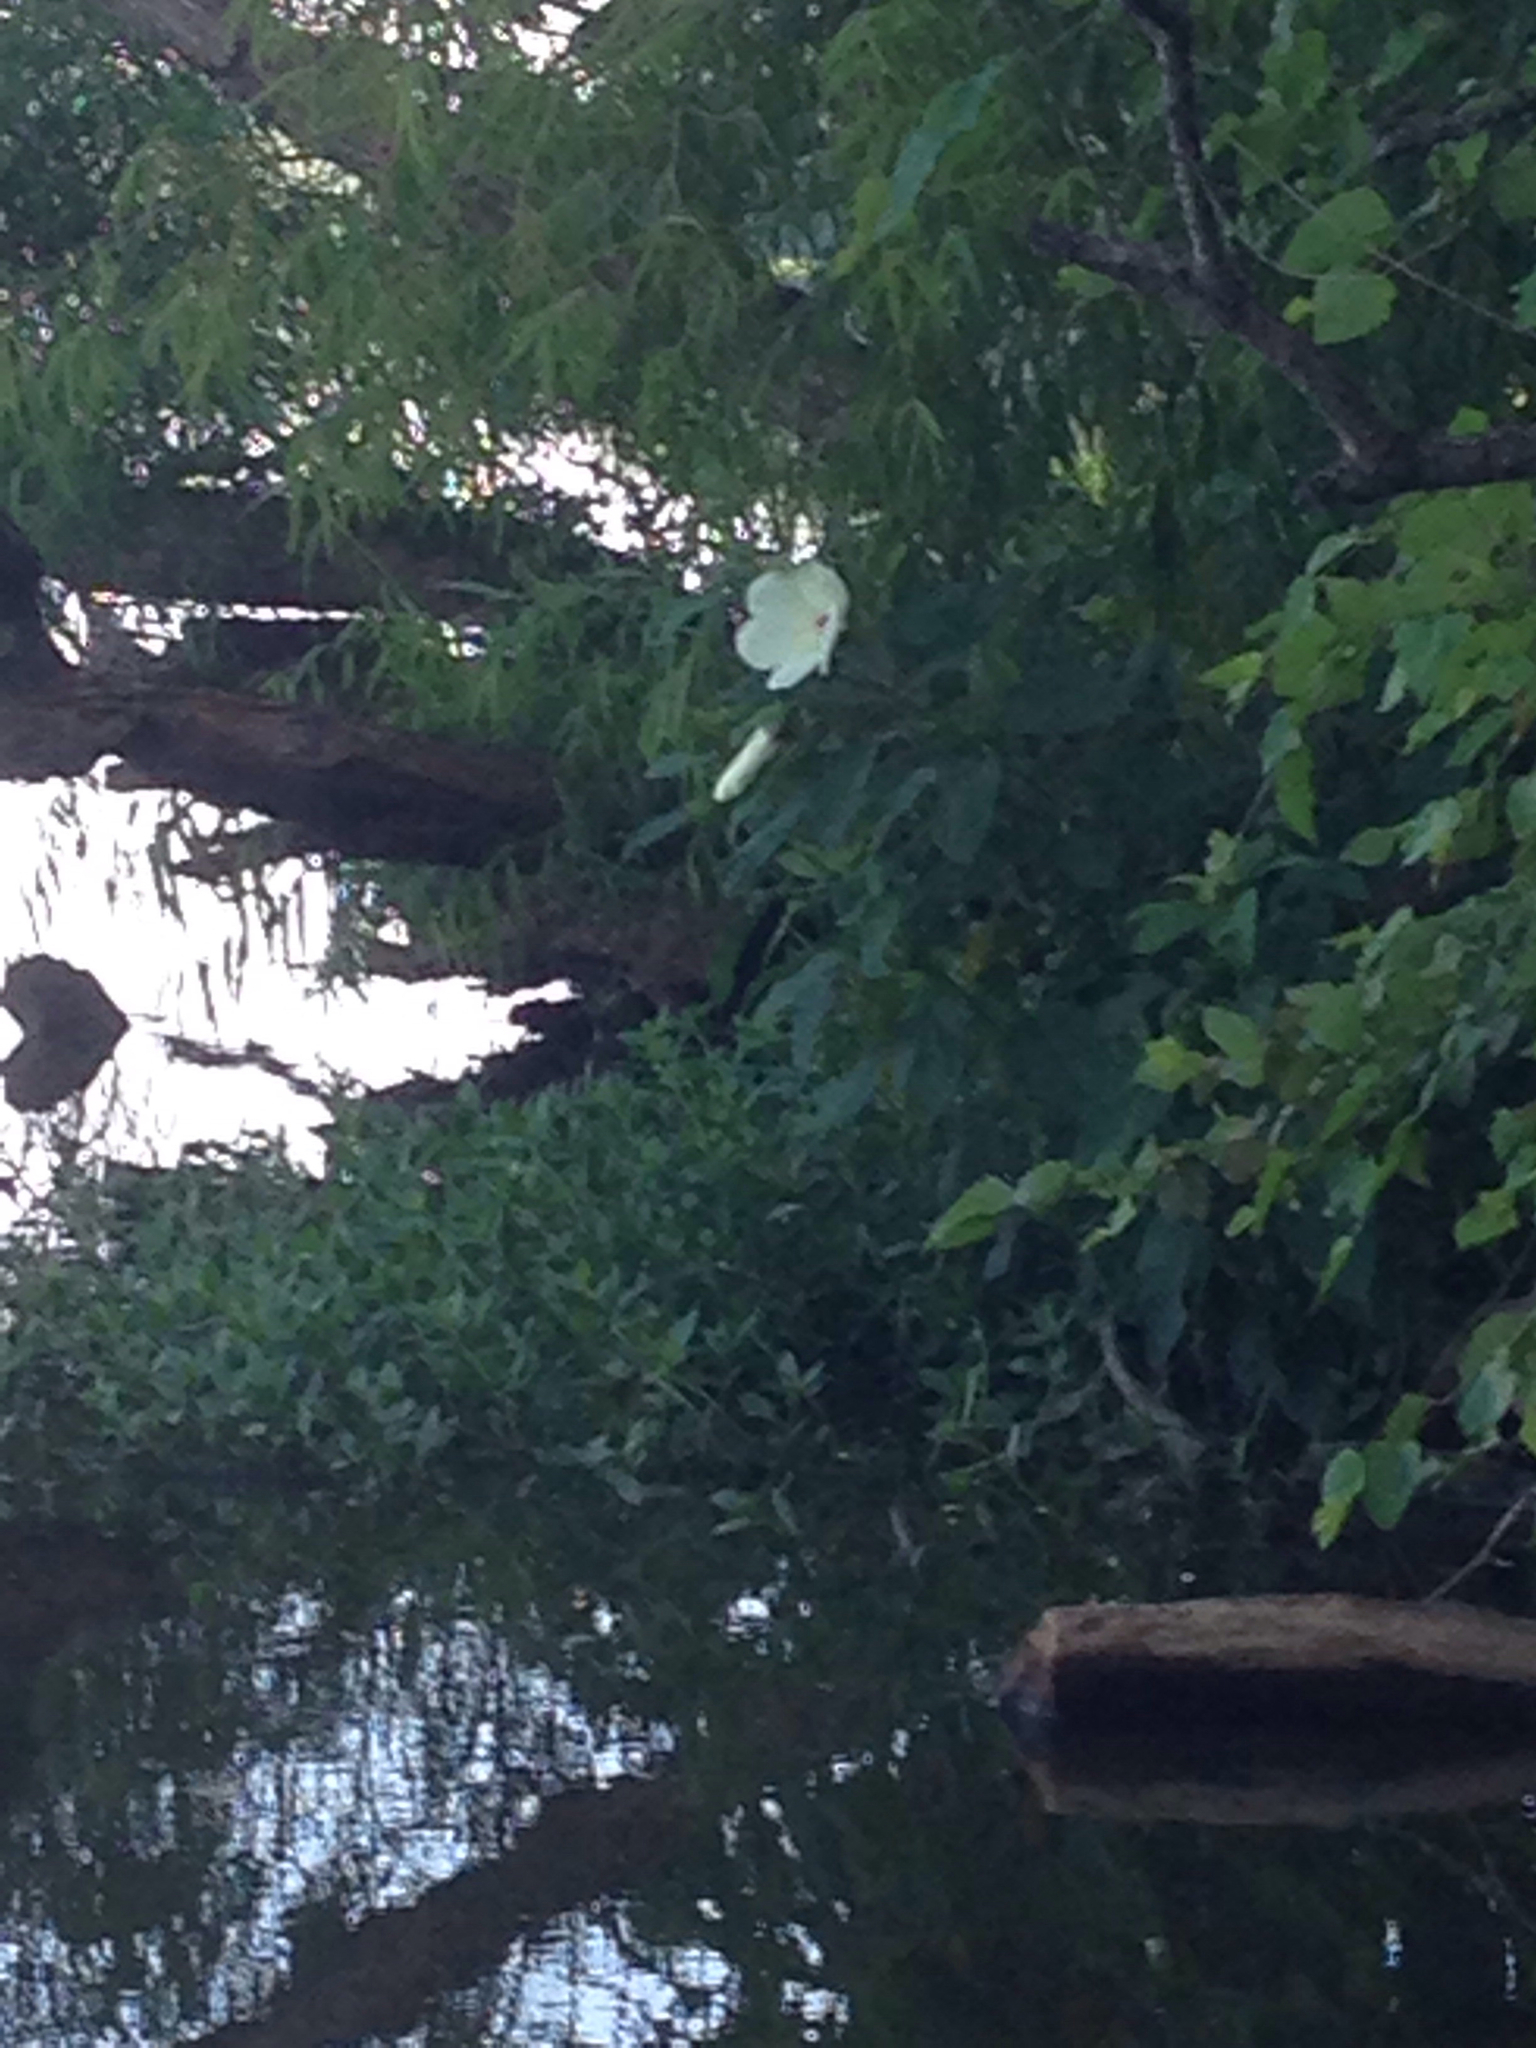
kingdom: Plantae
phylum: Tracheophyta
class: Magnoliopsida
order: Malvales
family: Malvaceae
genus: Hibiscus
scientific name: Hibiscus moscheutos
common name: Common rose-mallow
